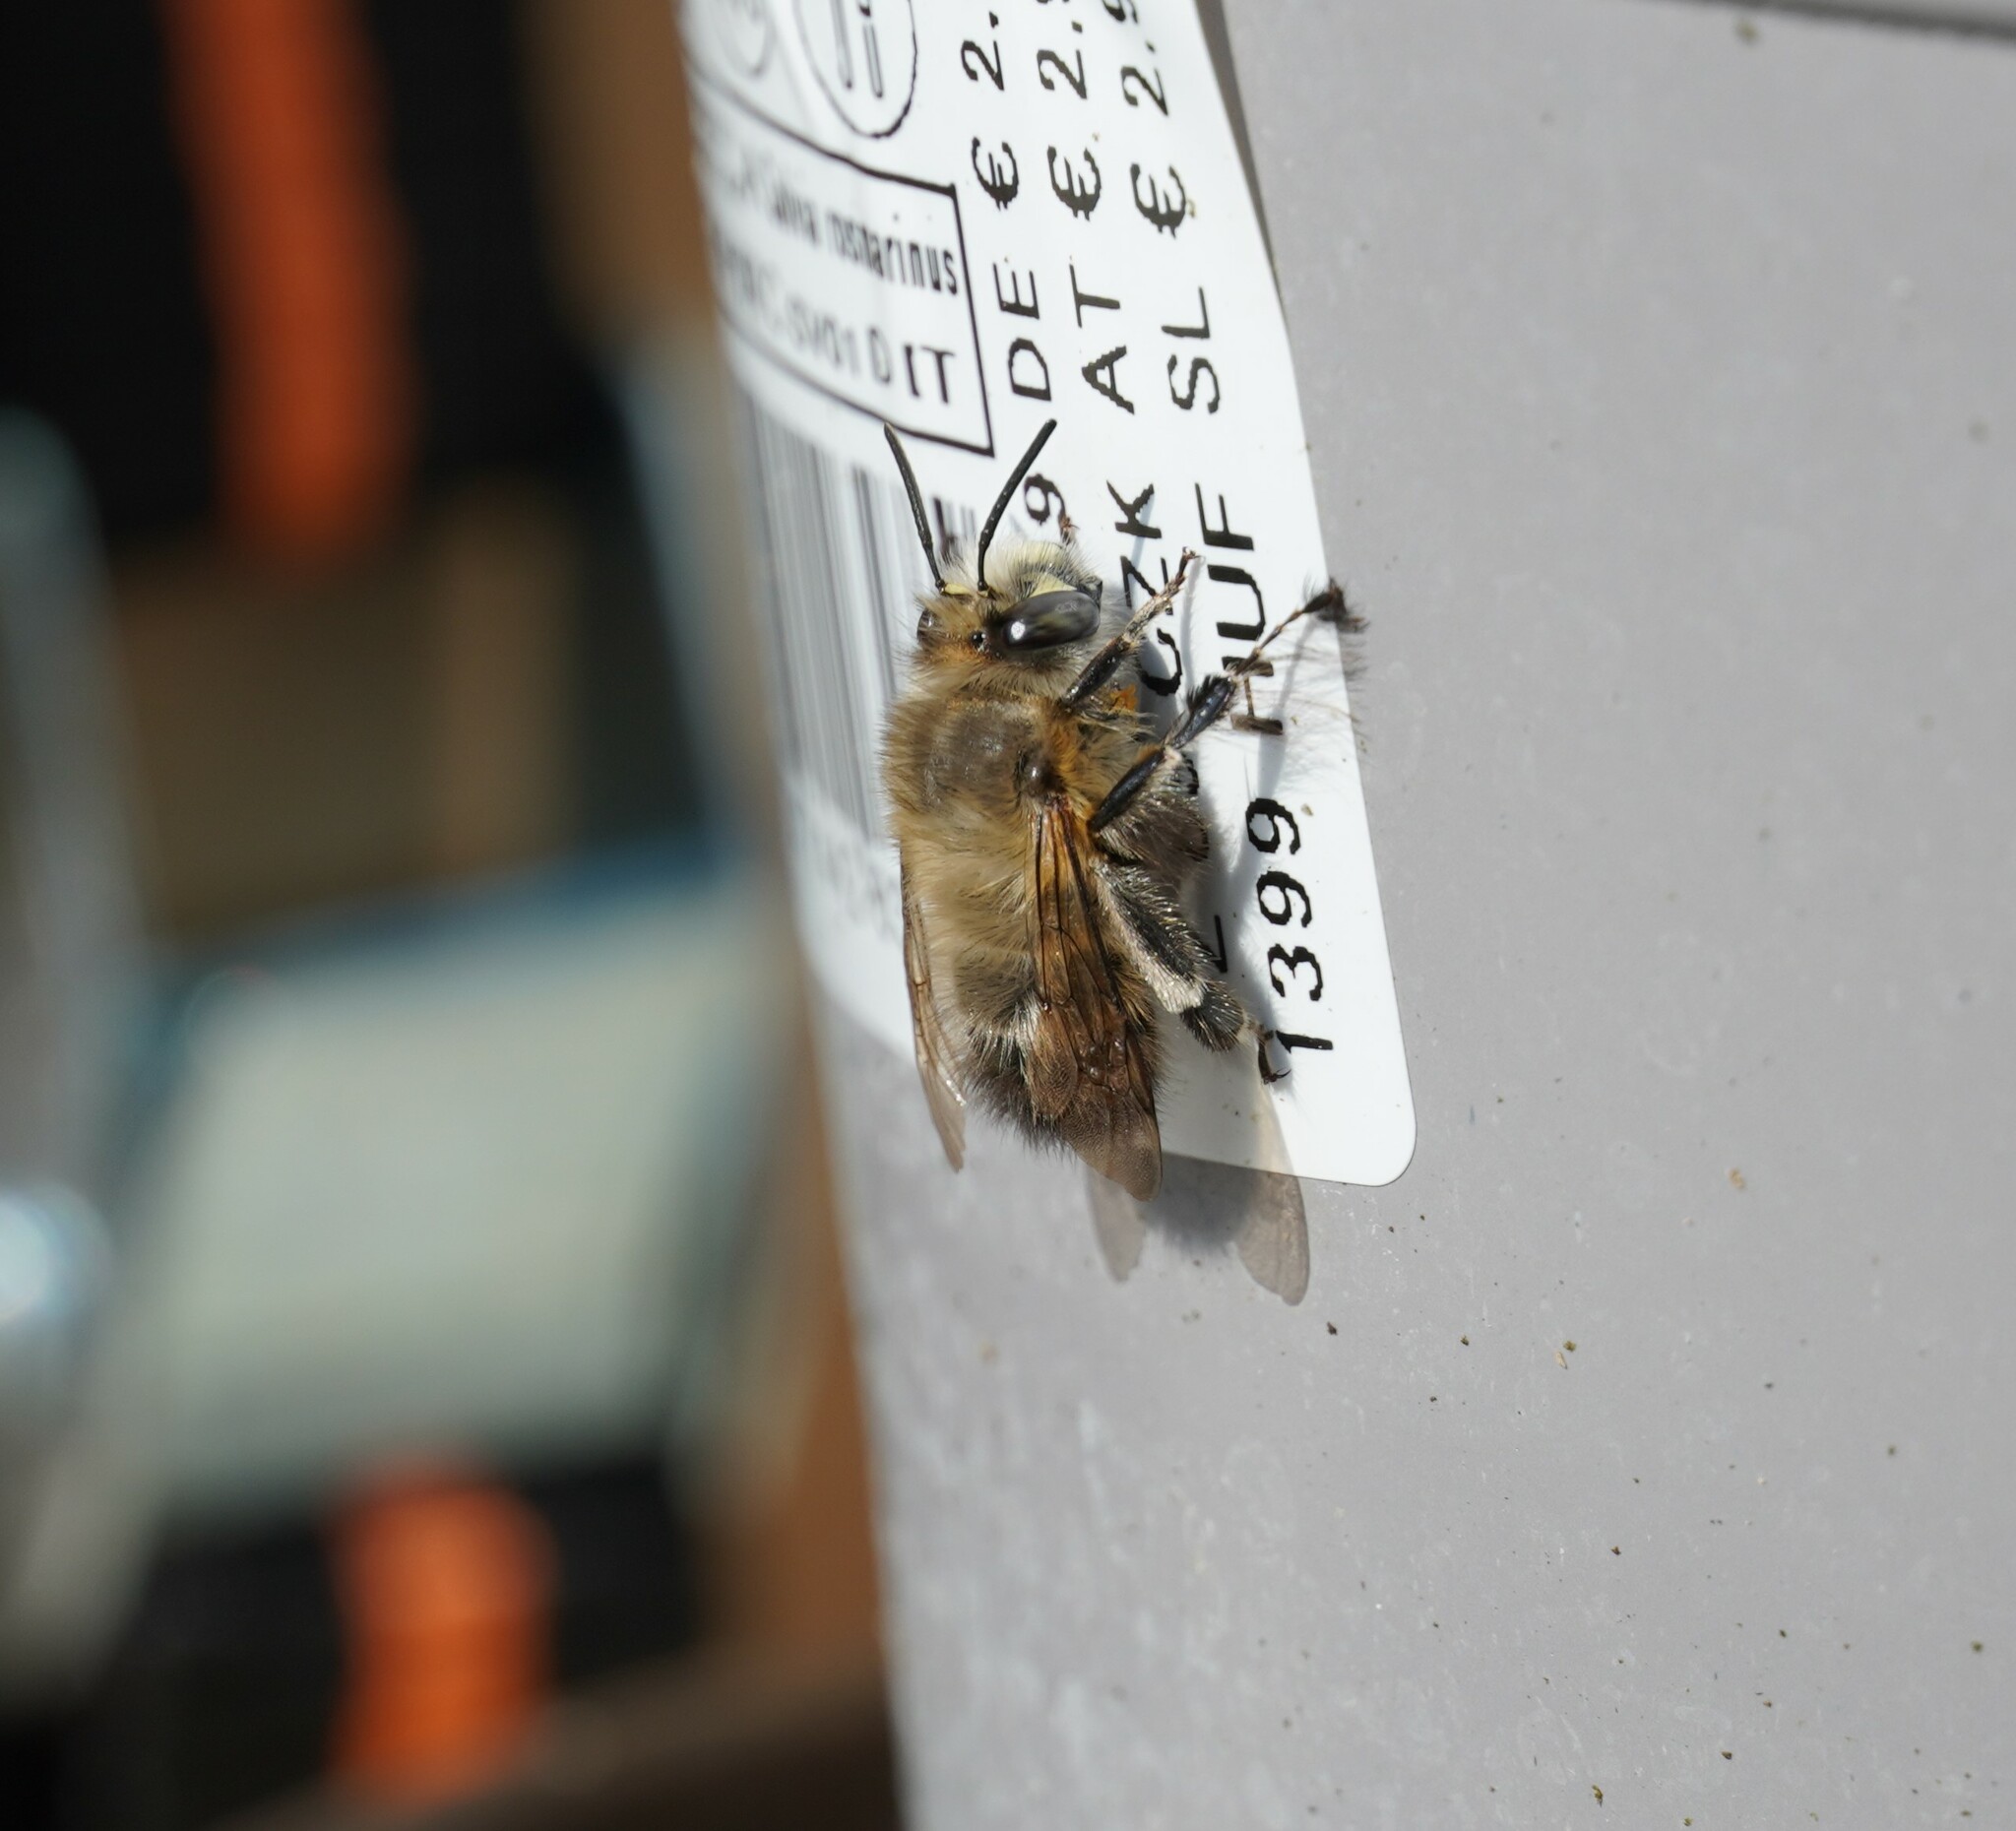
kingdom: Animalia
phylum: Arthropoda
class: Insecta
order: Hymenoptera
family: Apidae
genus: Anthophora
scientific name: Anthophora plumipes
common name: Hairy-footed flower bee
